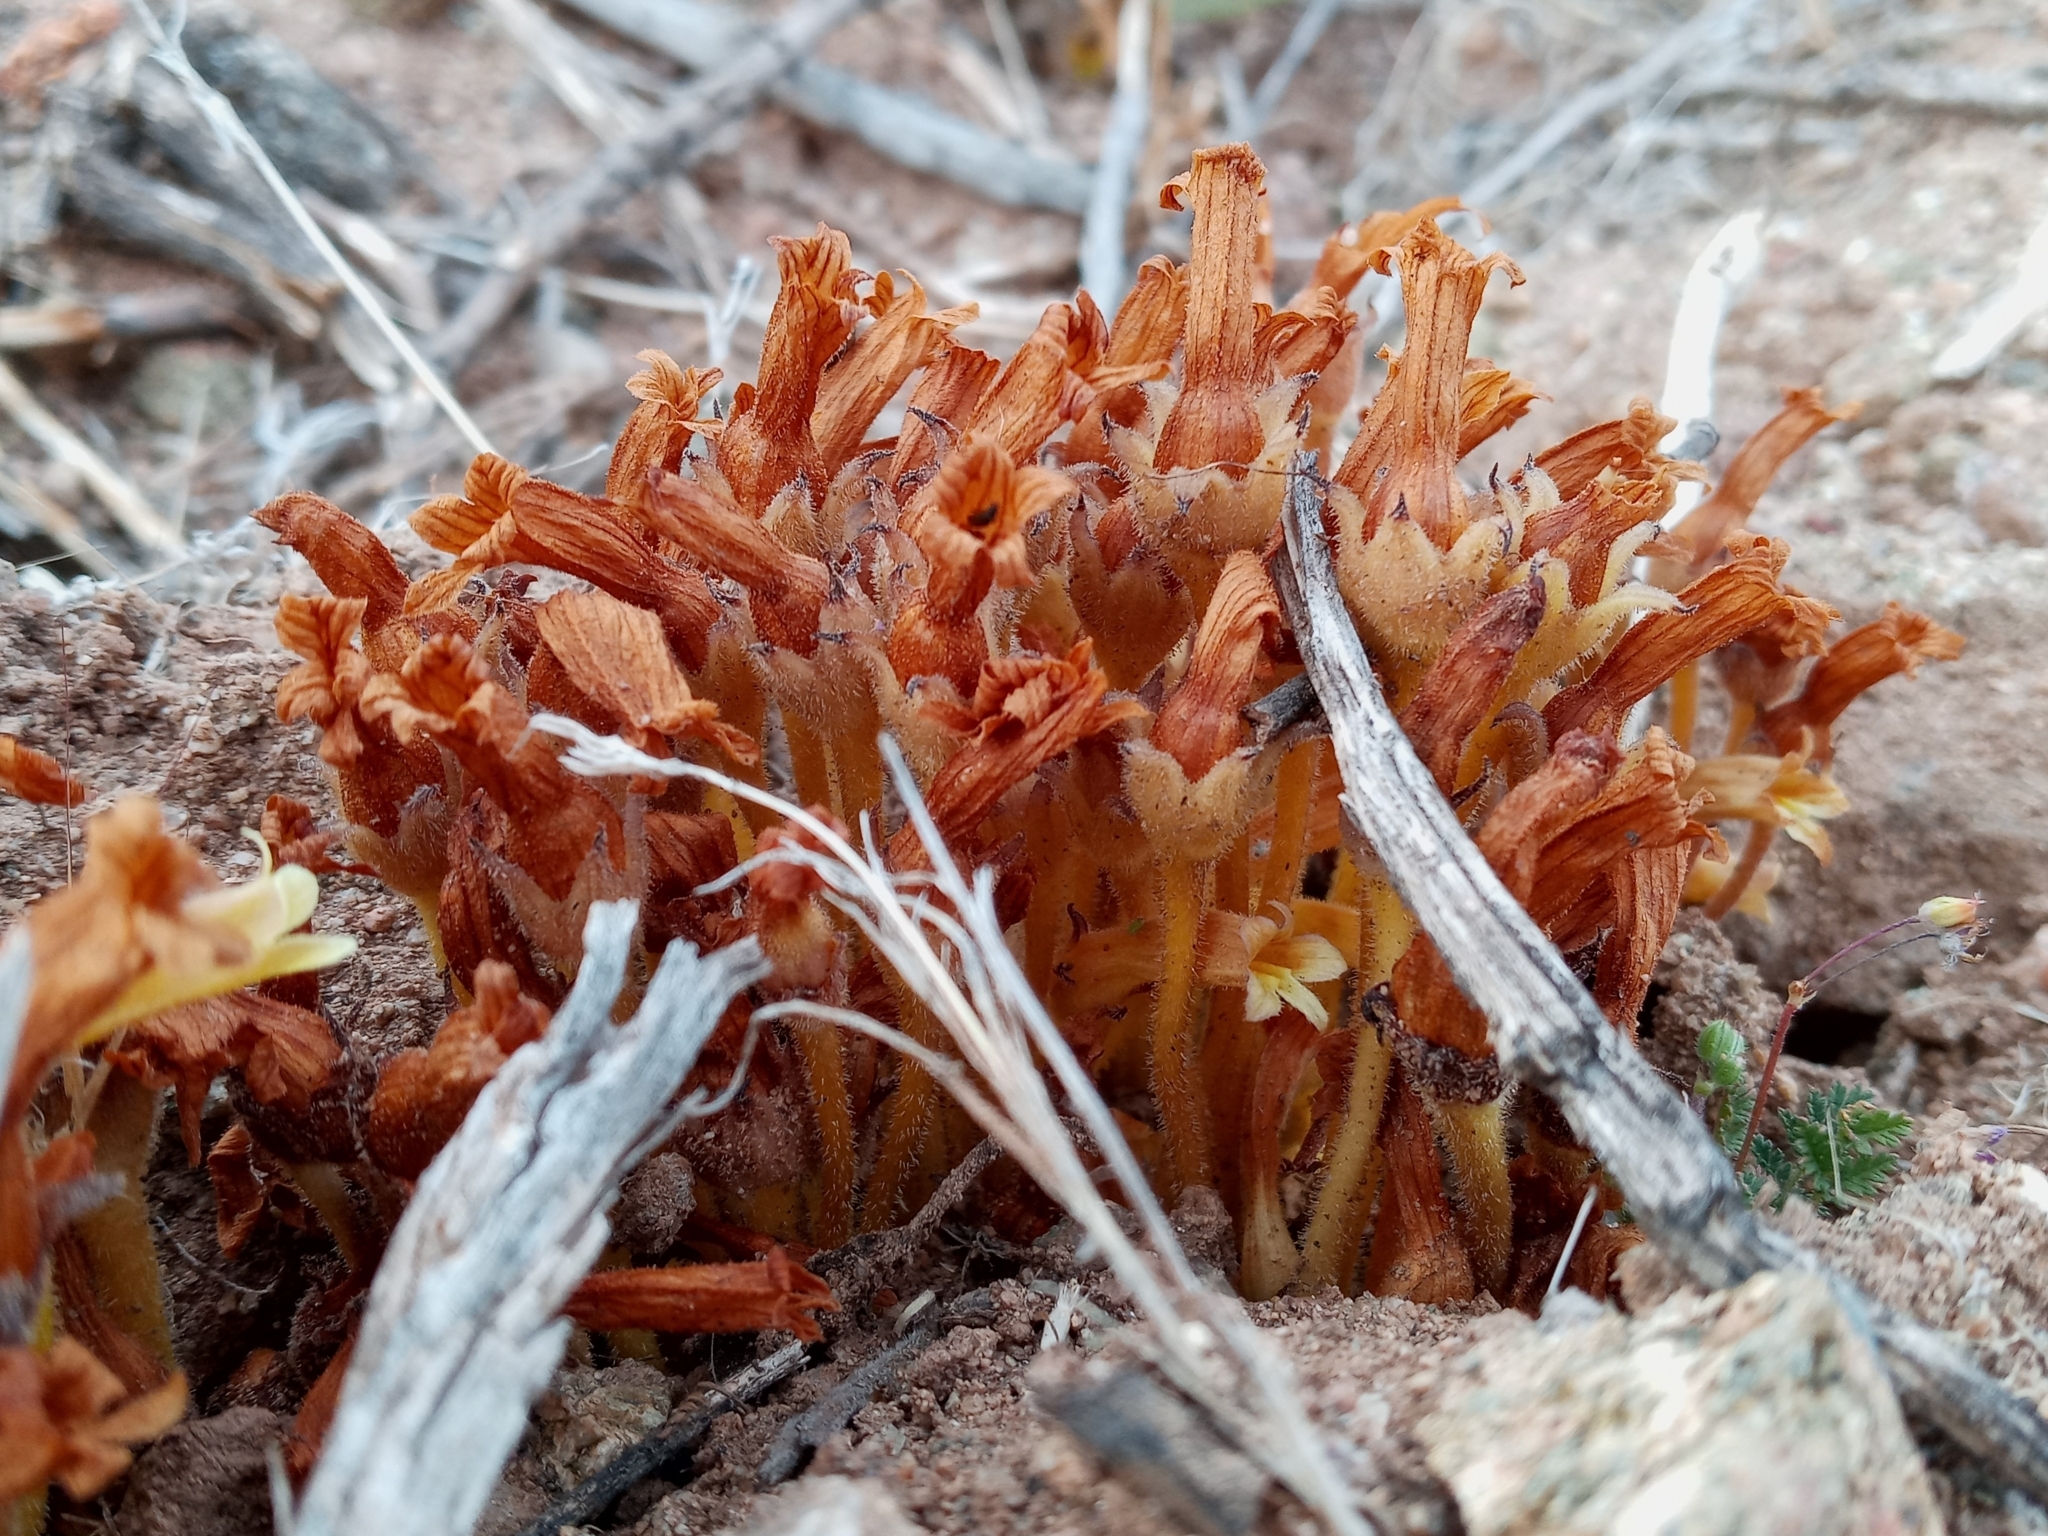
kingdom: Plantae
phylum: Tracheophyta
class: Magnoliopsida
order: Lamiales
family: Orobanchaceae
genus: Aphyllon
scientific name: Aphyllon franciscanum
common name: San francisco broomrape
